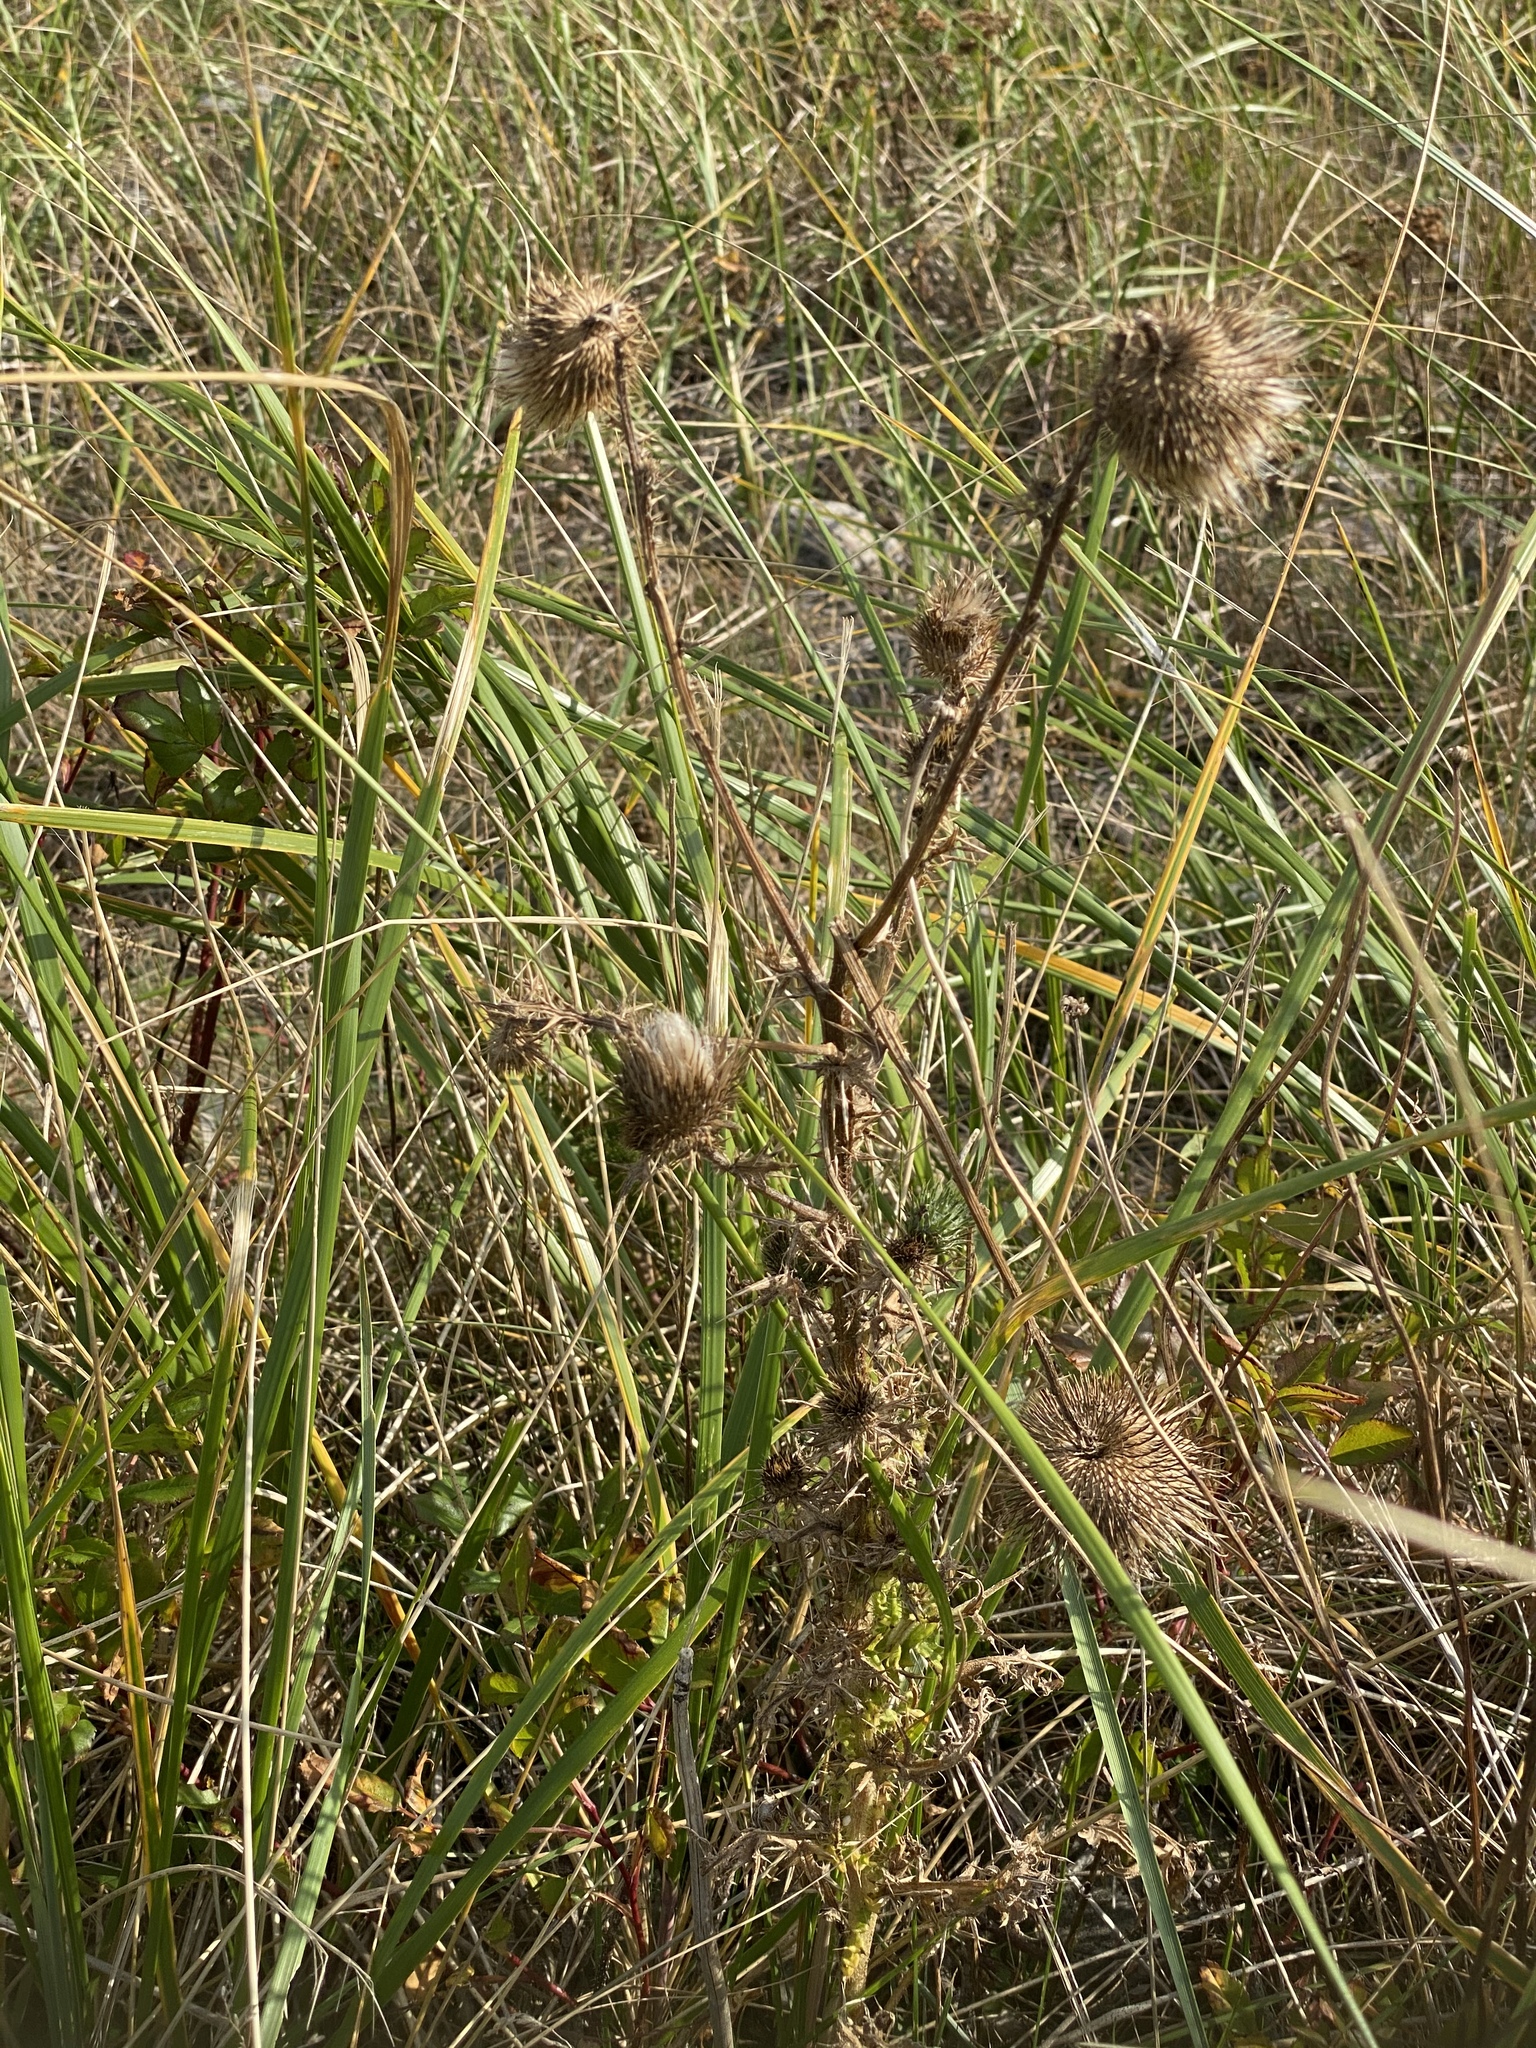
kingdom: Plantae
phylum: Tracheophyta
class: Magnoliopsida
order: Asterales
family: Asteraceae
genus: Cirsium
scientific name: Cirsium vulgare
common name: Bull thistle
